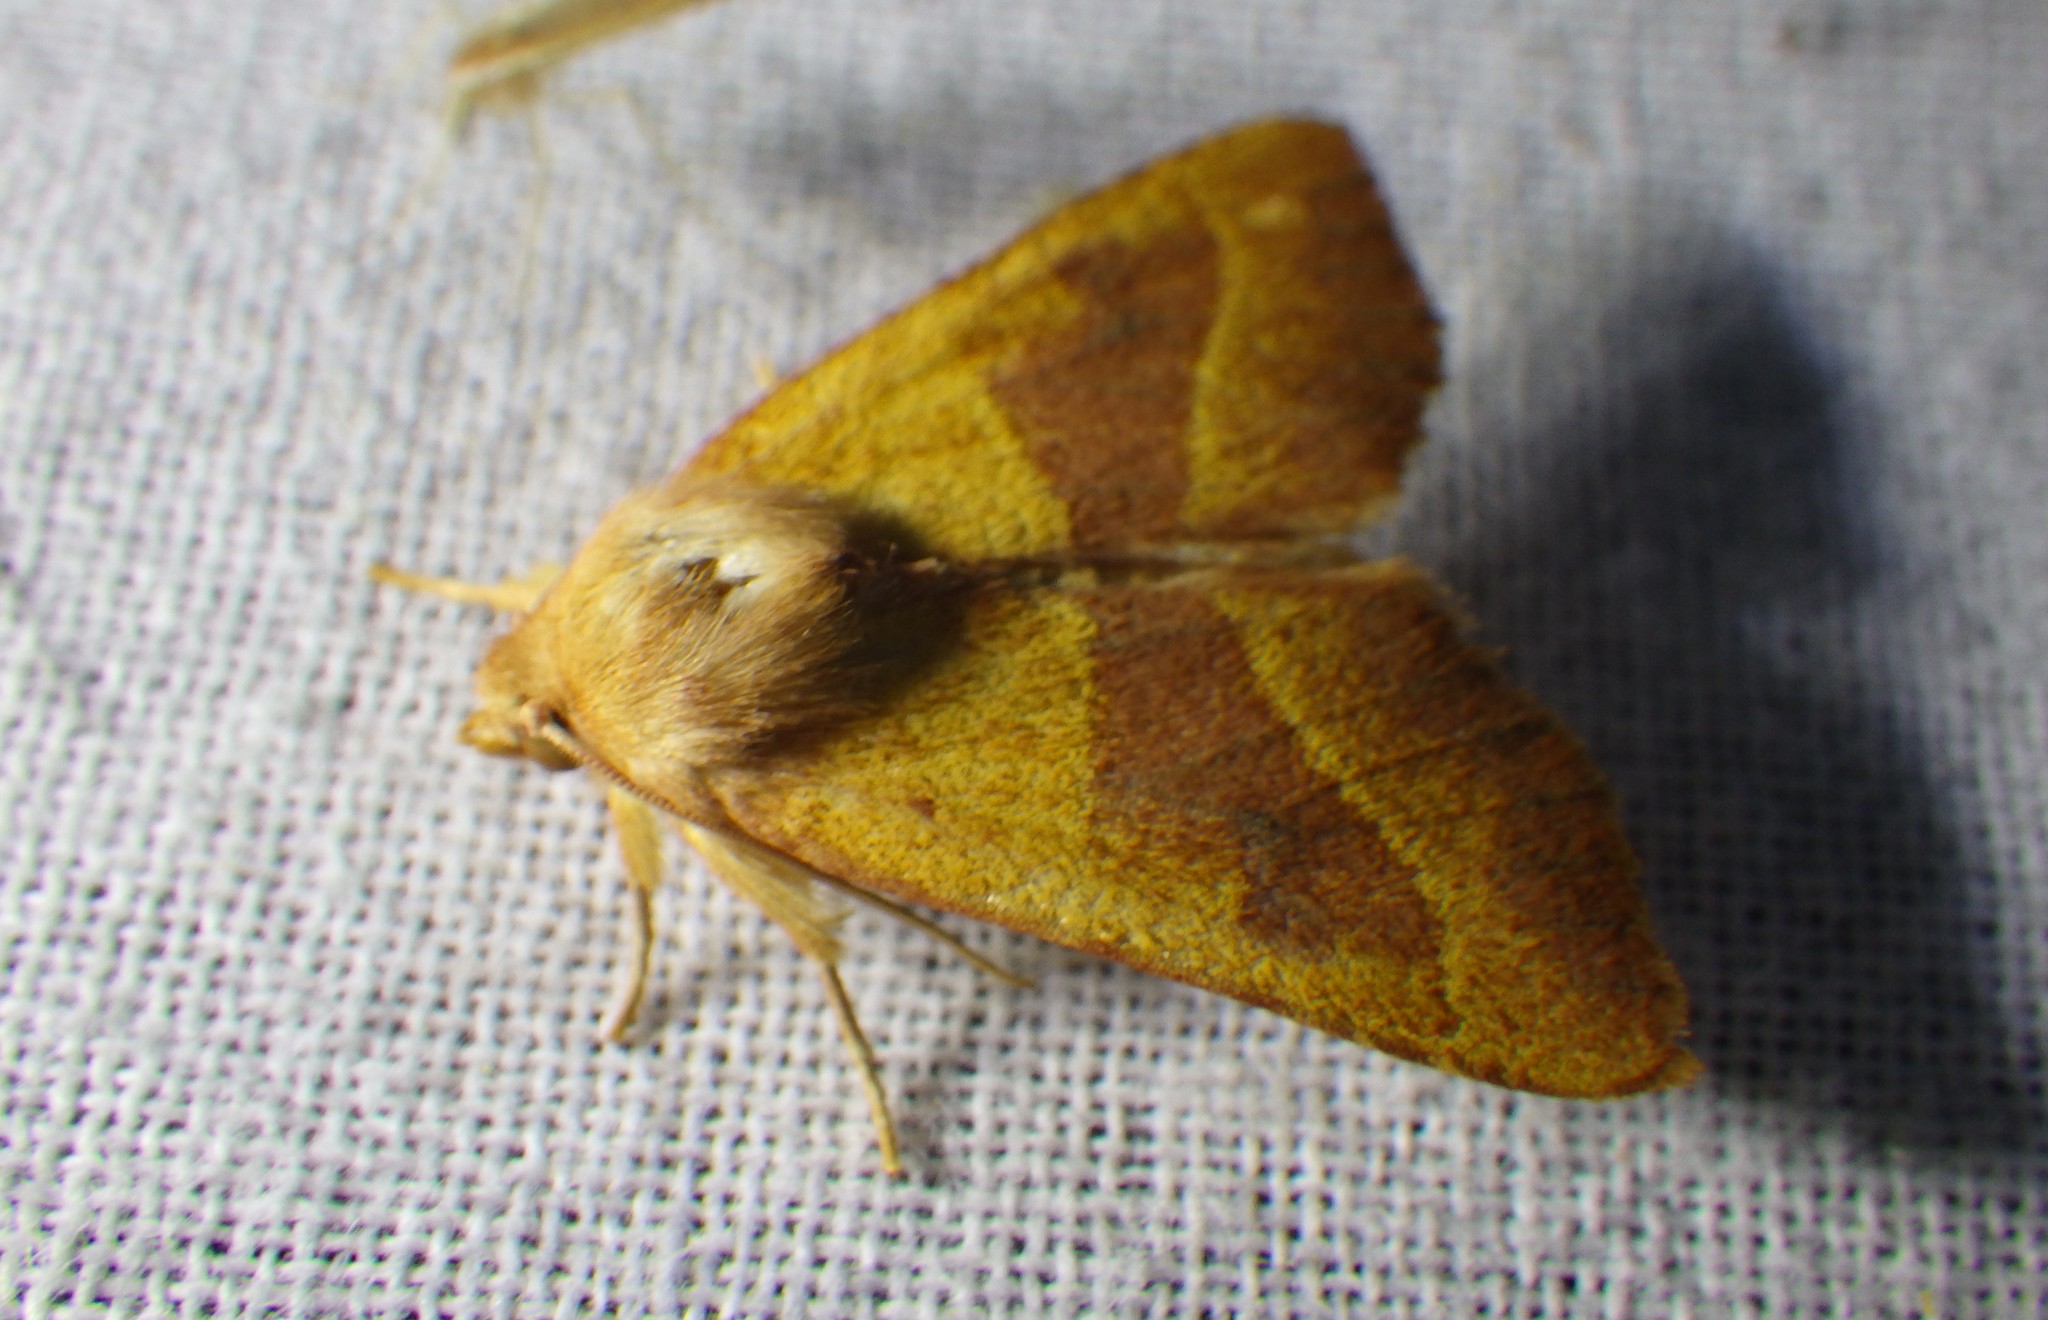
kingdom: Animalia
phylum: Arthropoda
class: Insecta
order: Lepidoptera
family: Noctuidae
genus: Atethmia
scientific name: Atethmia centrago
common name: Centre-barred sallow
